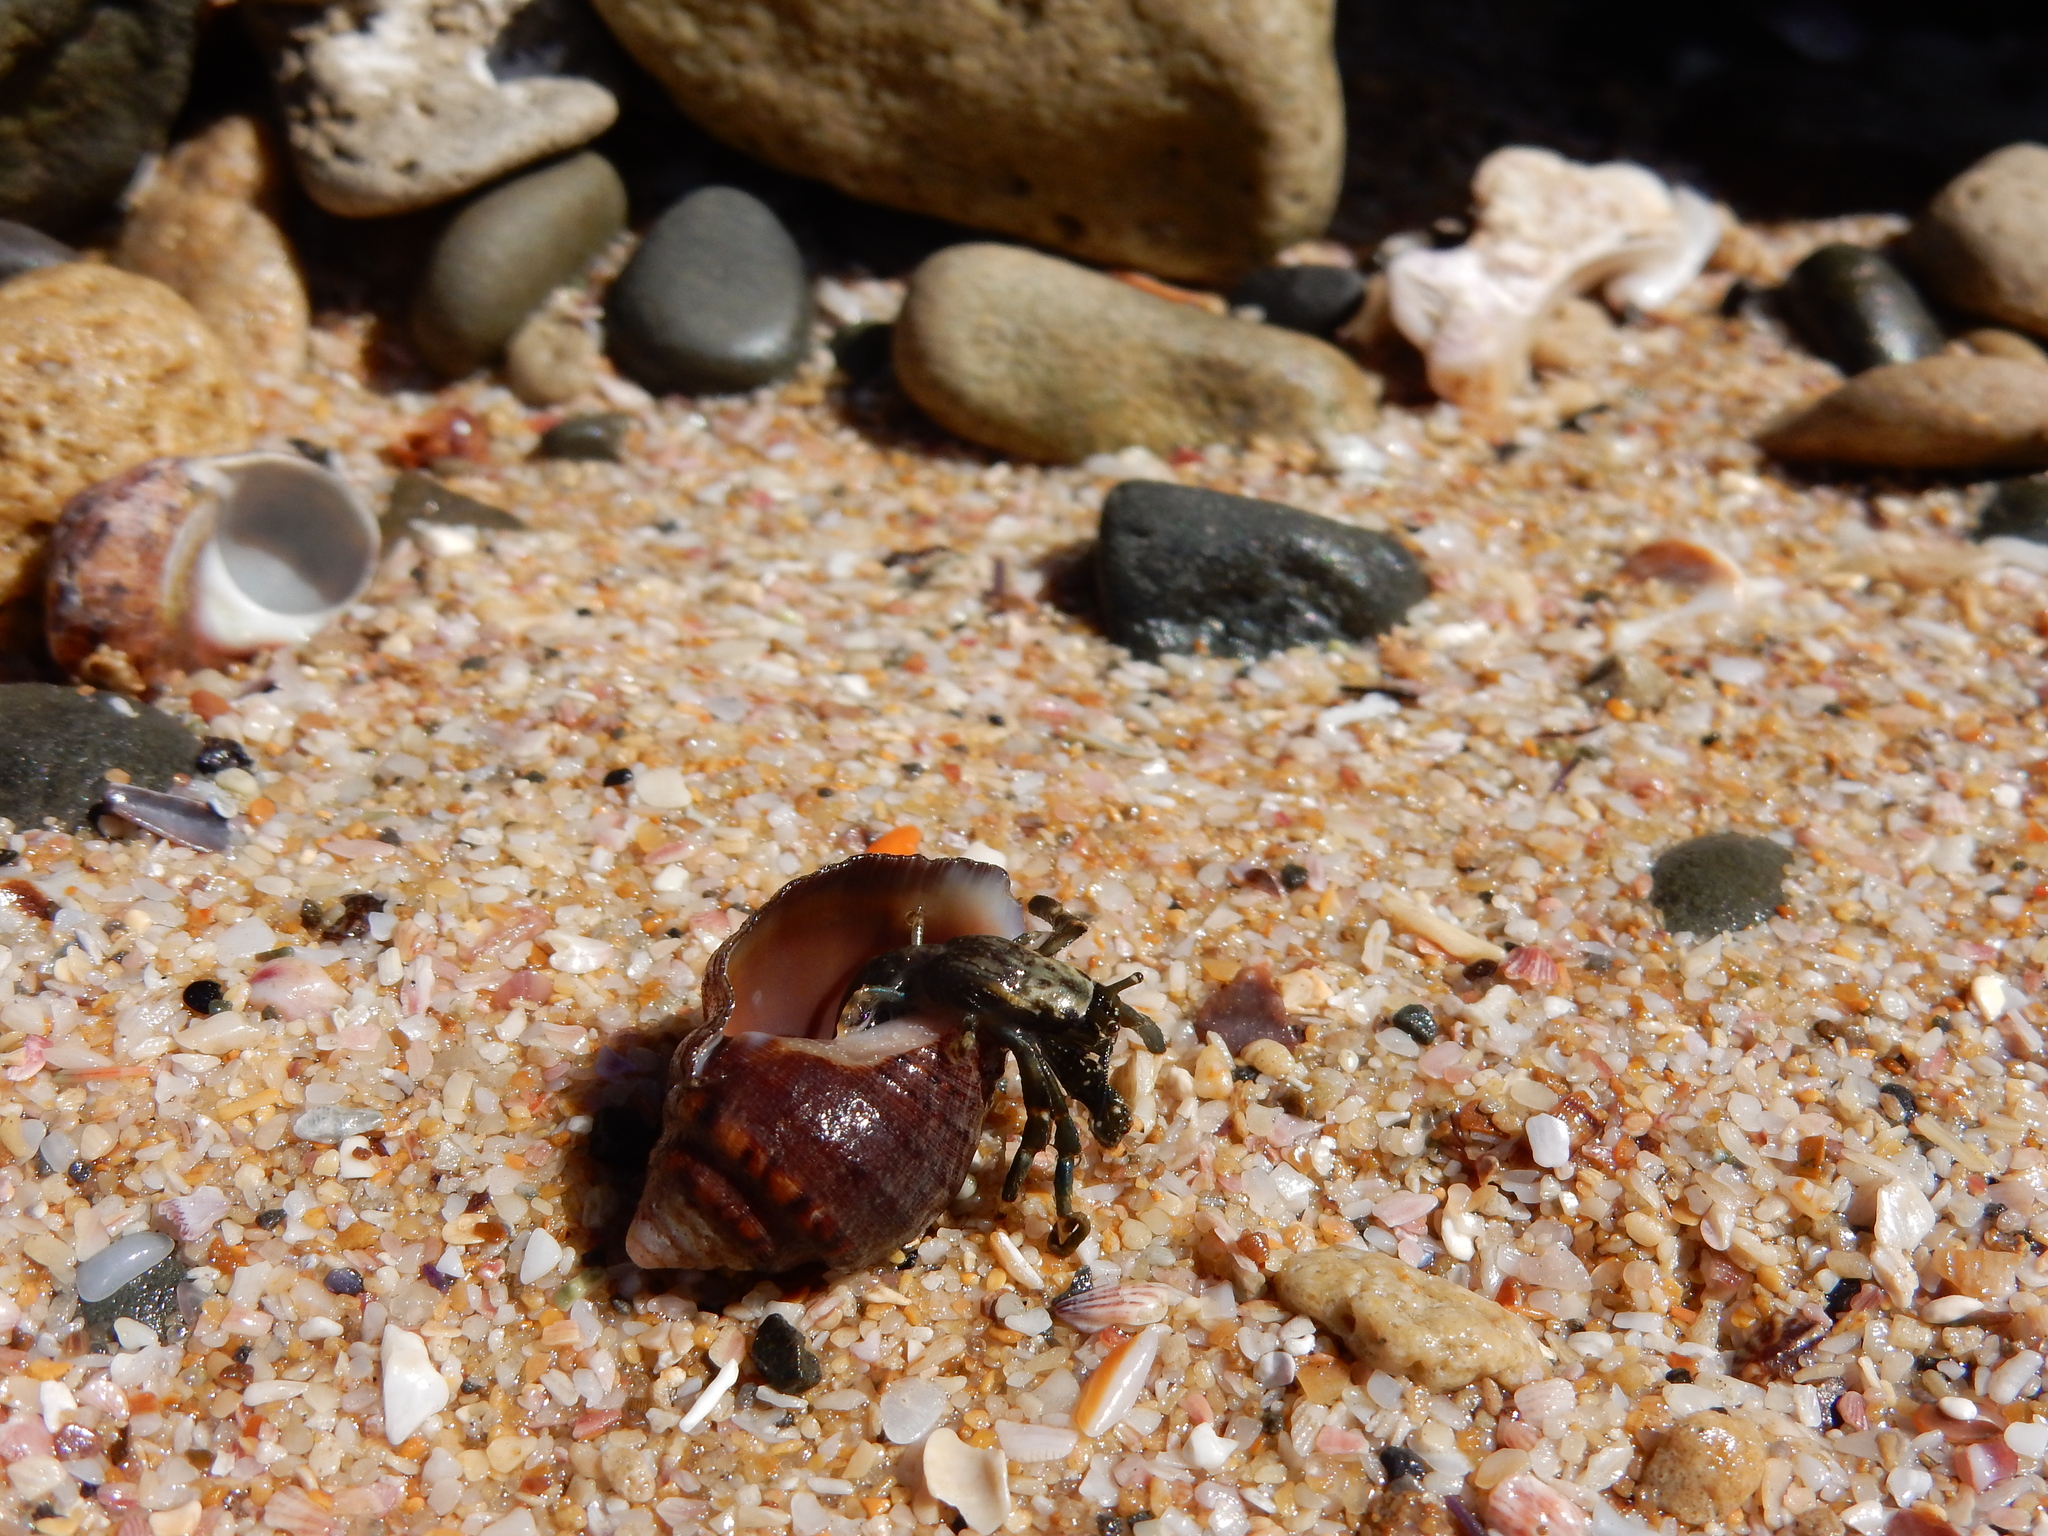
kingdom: Animalia
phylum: Arthropoda
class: Malacostraca
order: Decapoda
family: Diogenidae
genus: Clibanarius
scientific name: Clibanarius virescens
